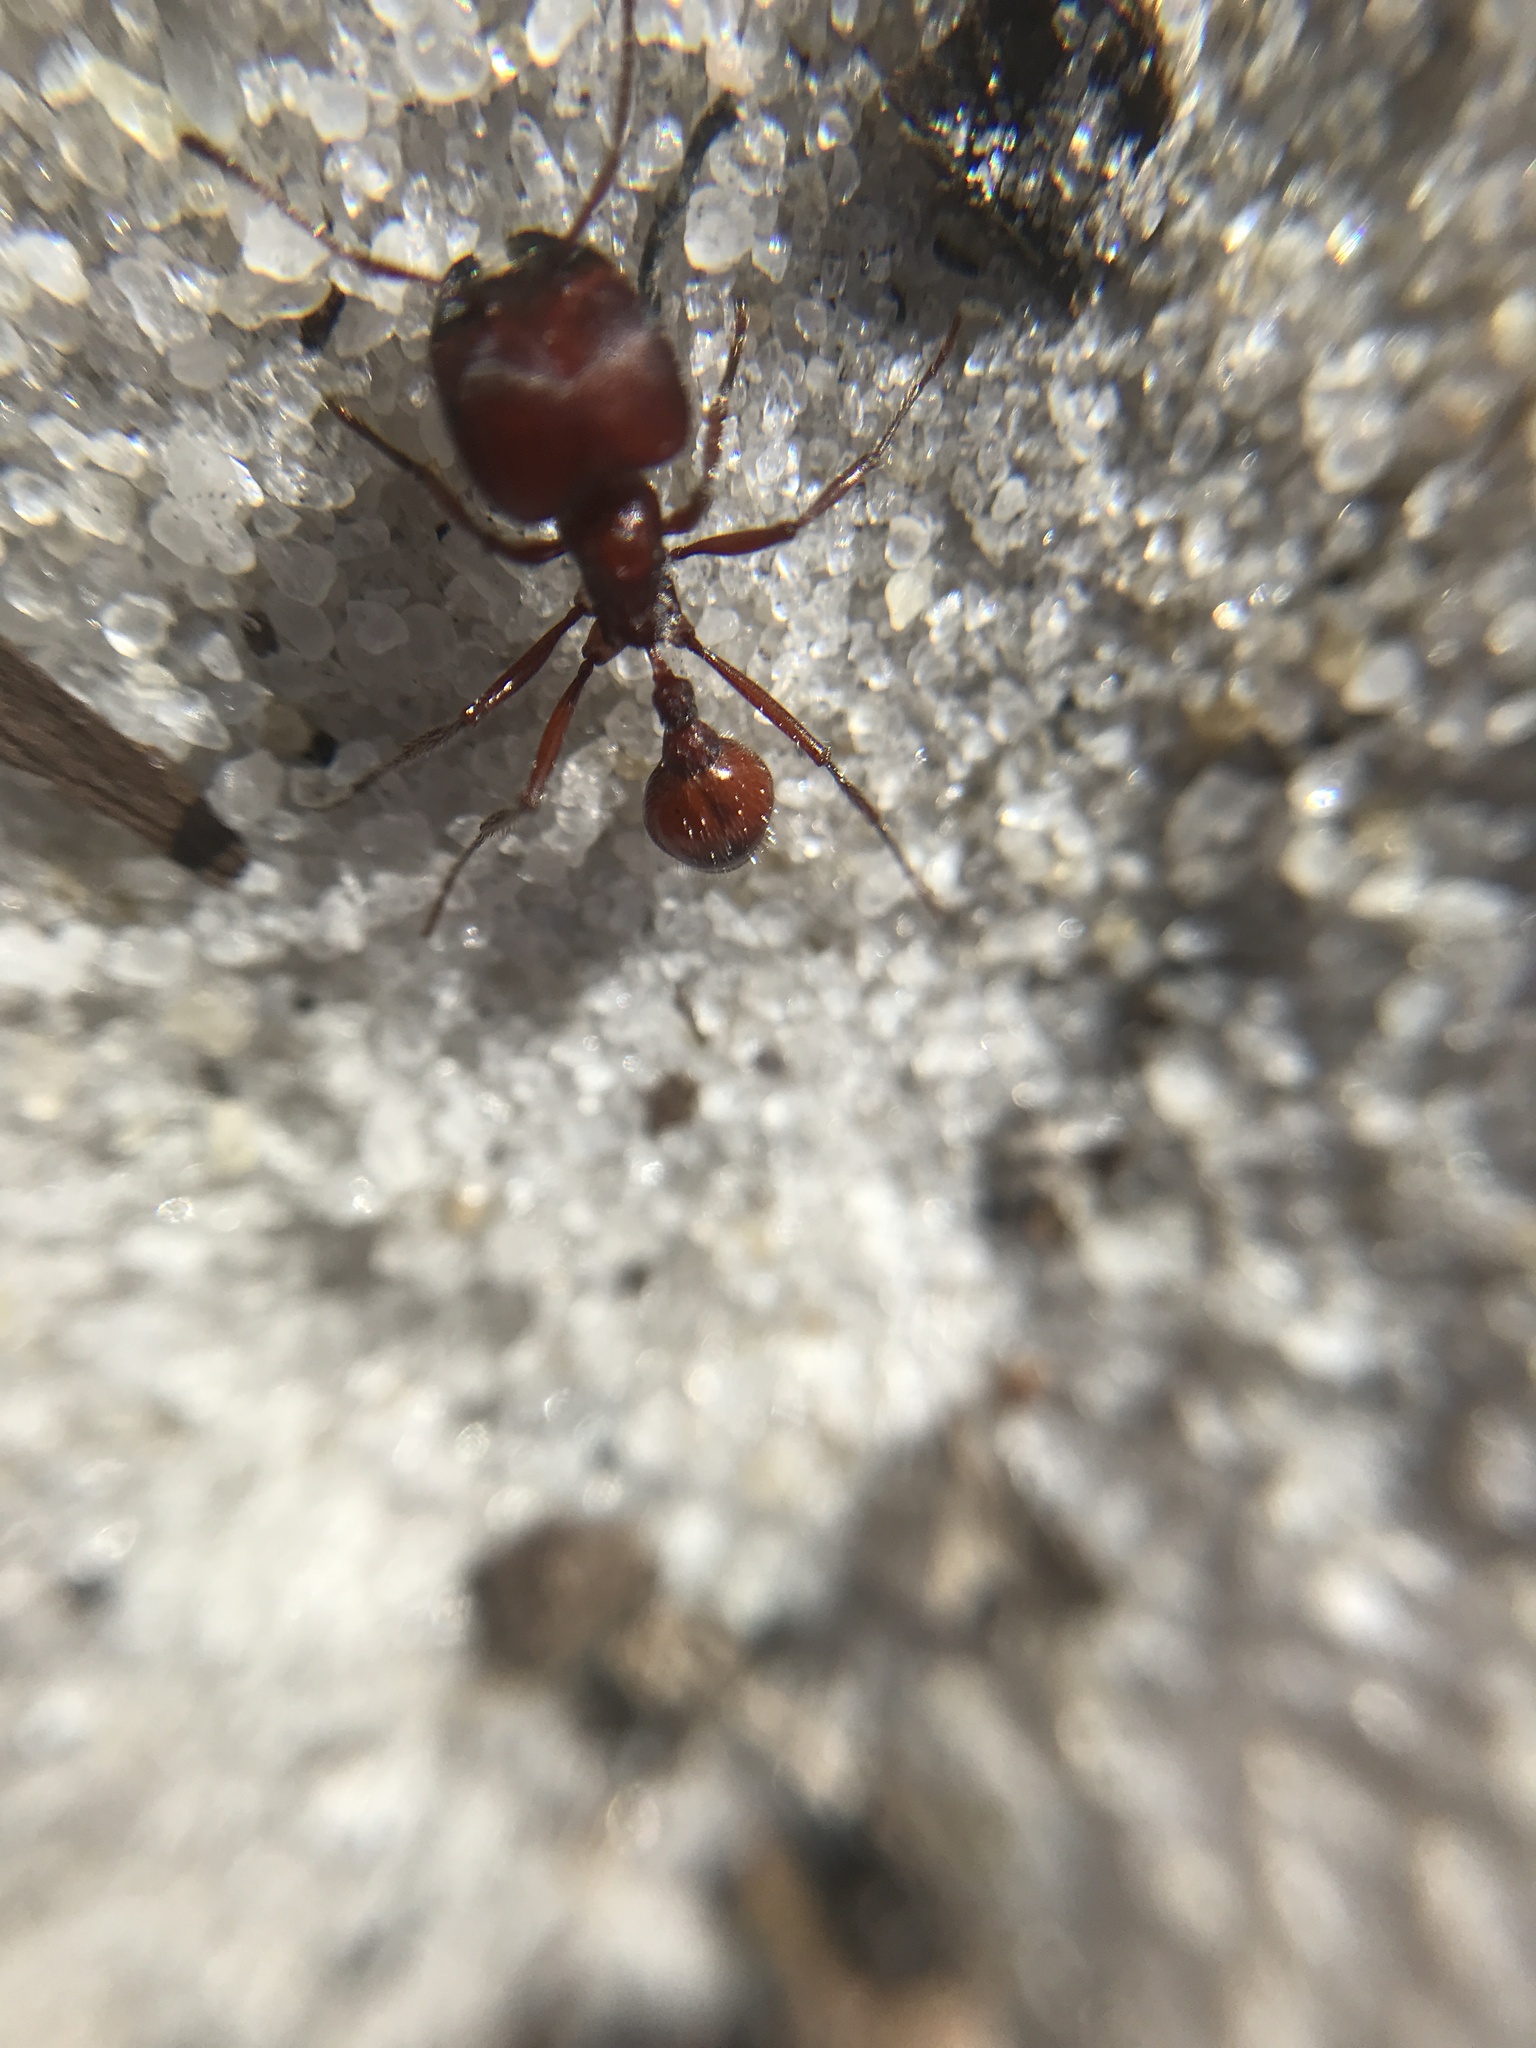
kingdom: Animalia
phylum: Arthropoda
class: Insecta
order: Hymenoptera
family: Formicidae
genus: Pogonomyrmex
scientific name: Pogonomyrmex badius
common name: Florida harvester ant
